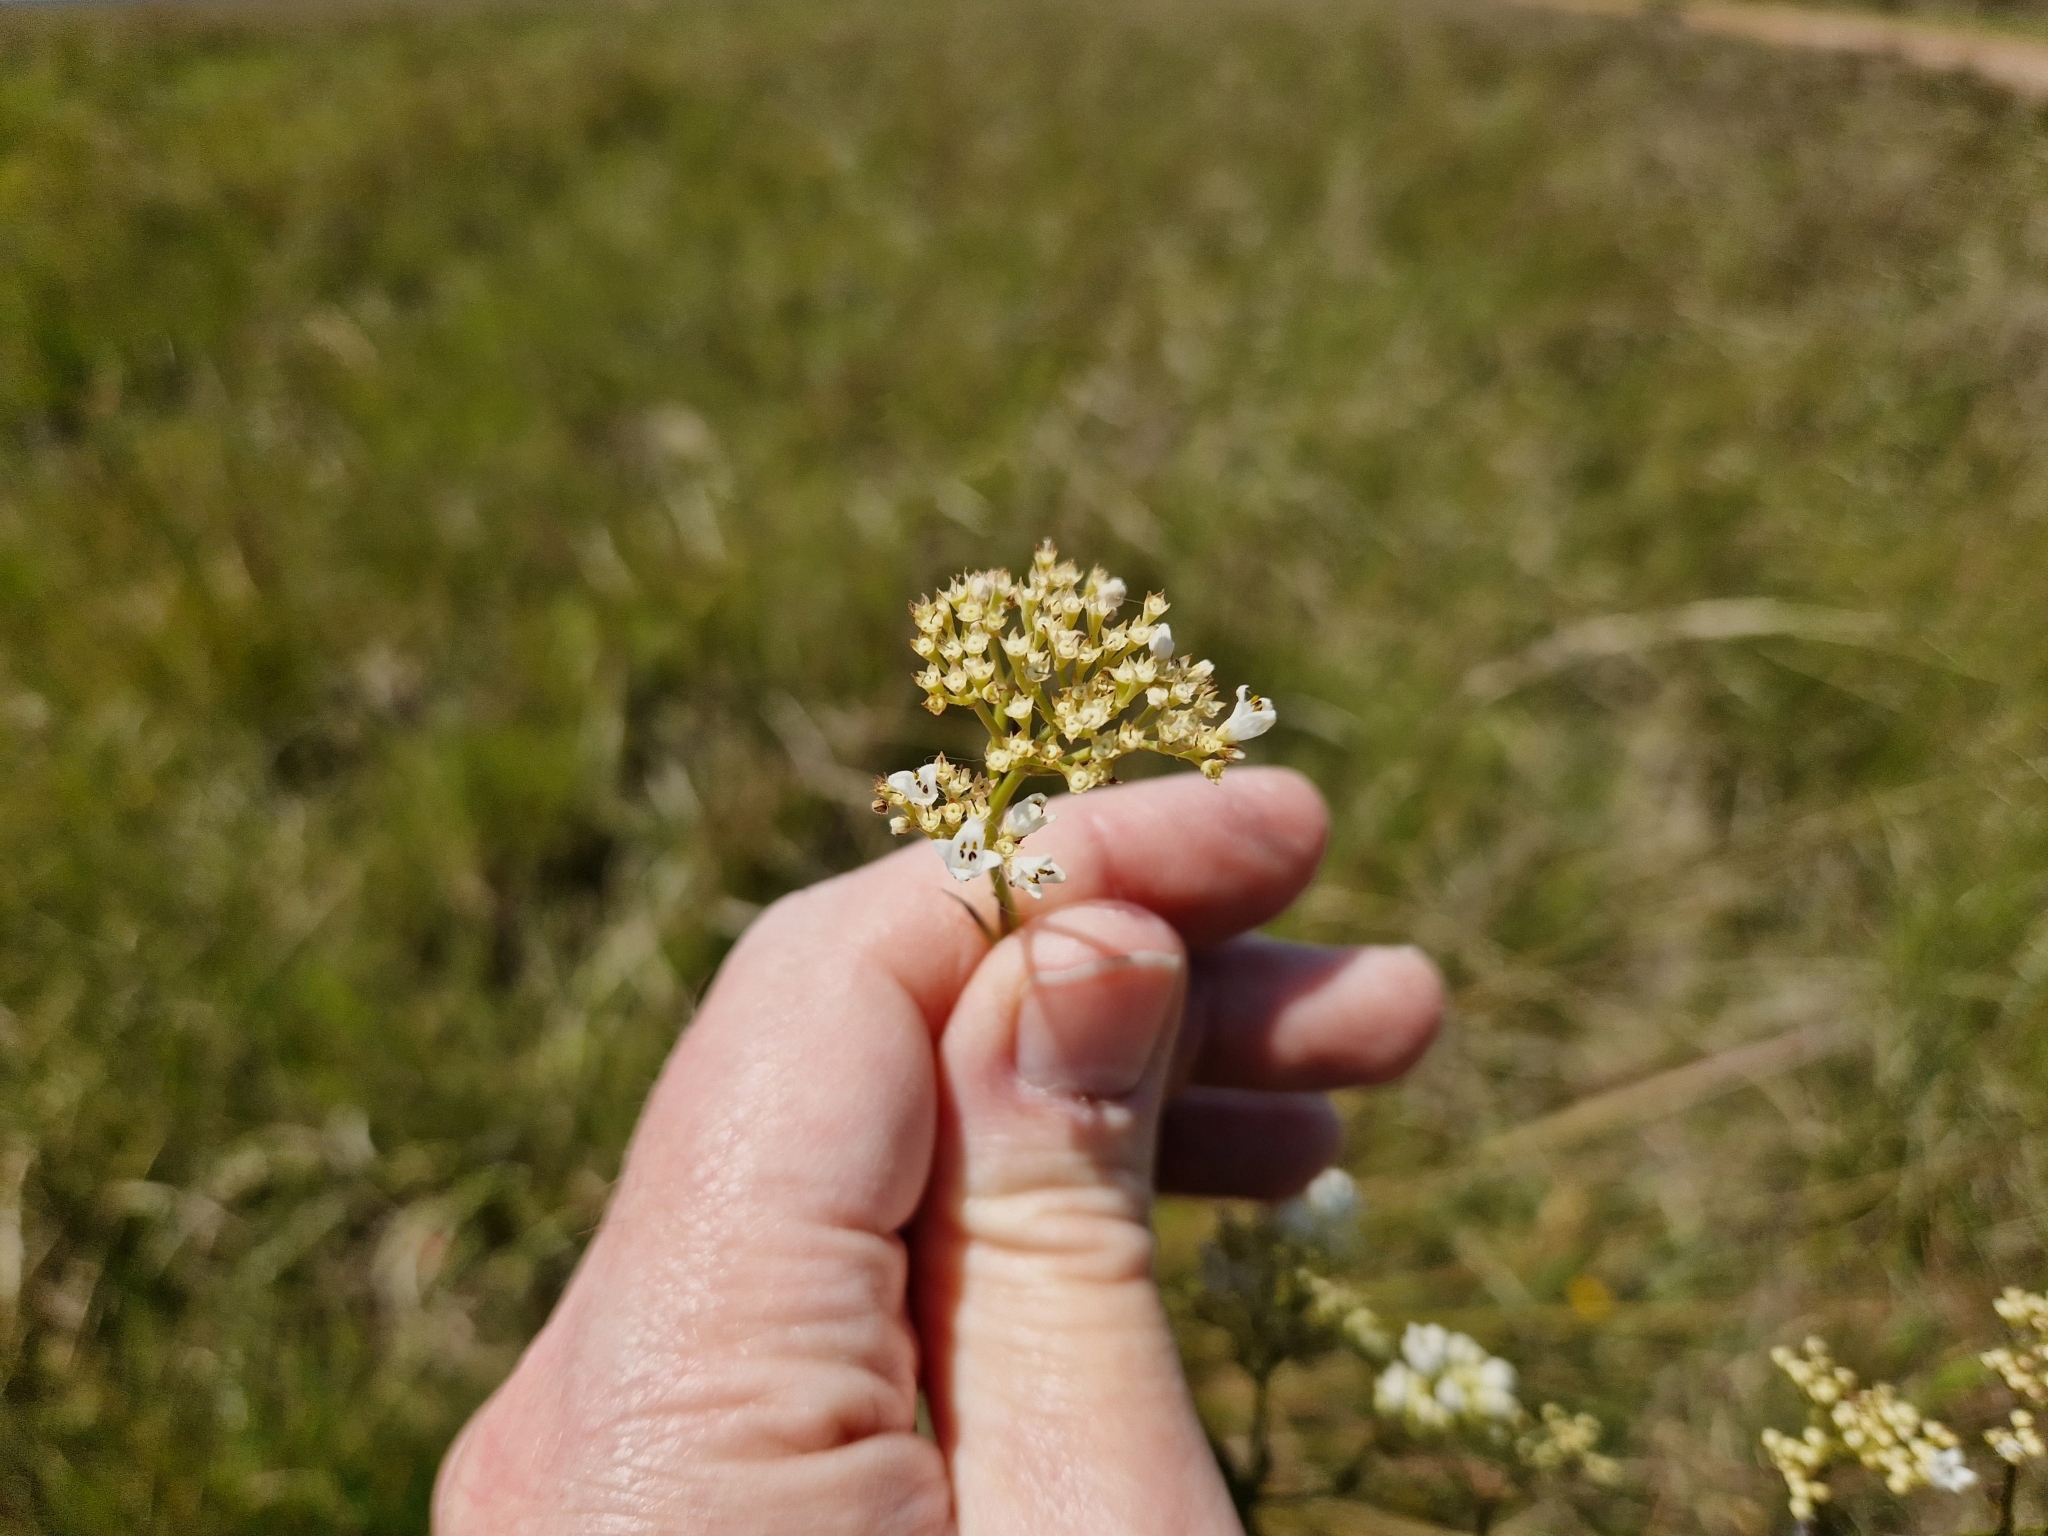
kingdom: Plantae
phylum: Tracheophyta
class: Magnoliopsida
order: Gentianales
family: Rubiaceae
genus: Galianthe
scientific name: Galianthe equisetoides
